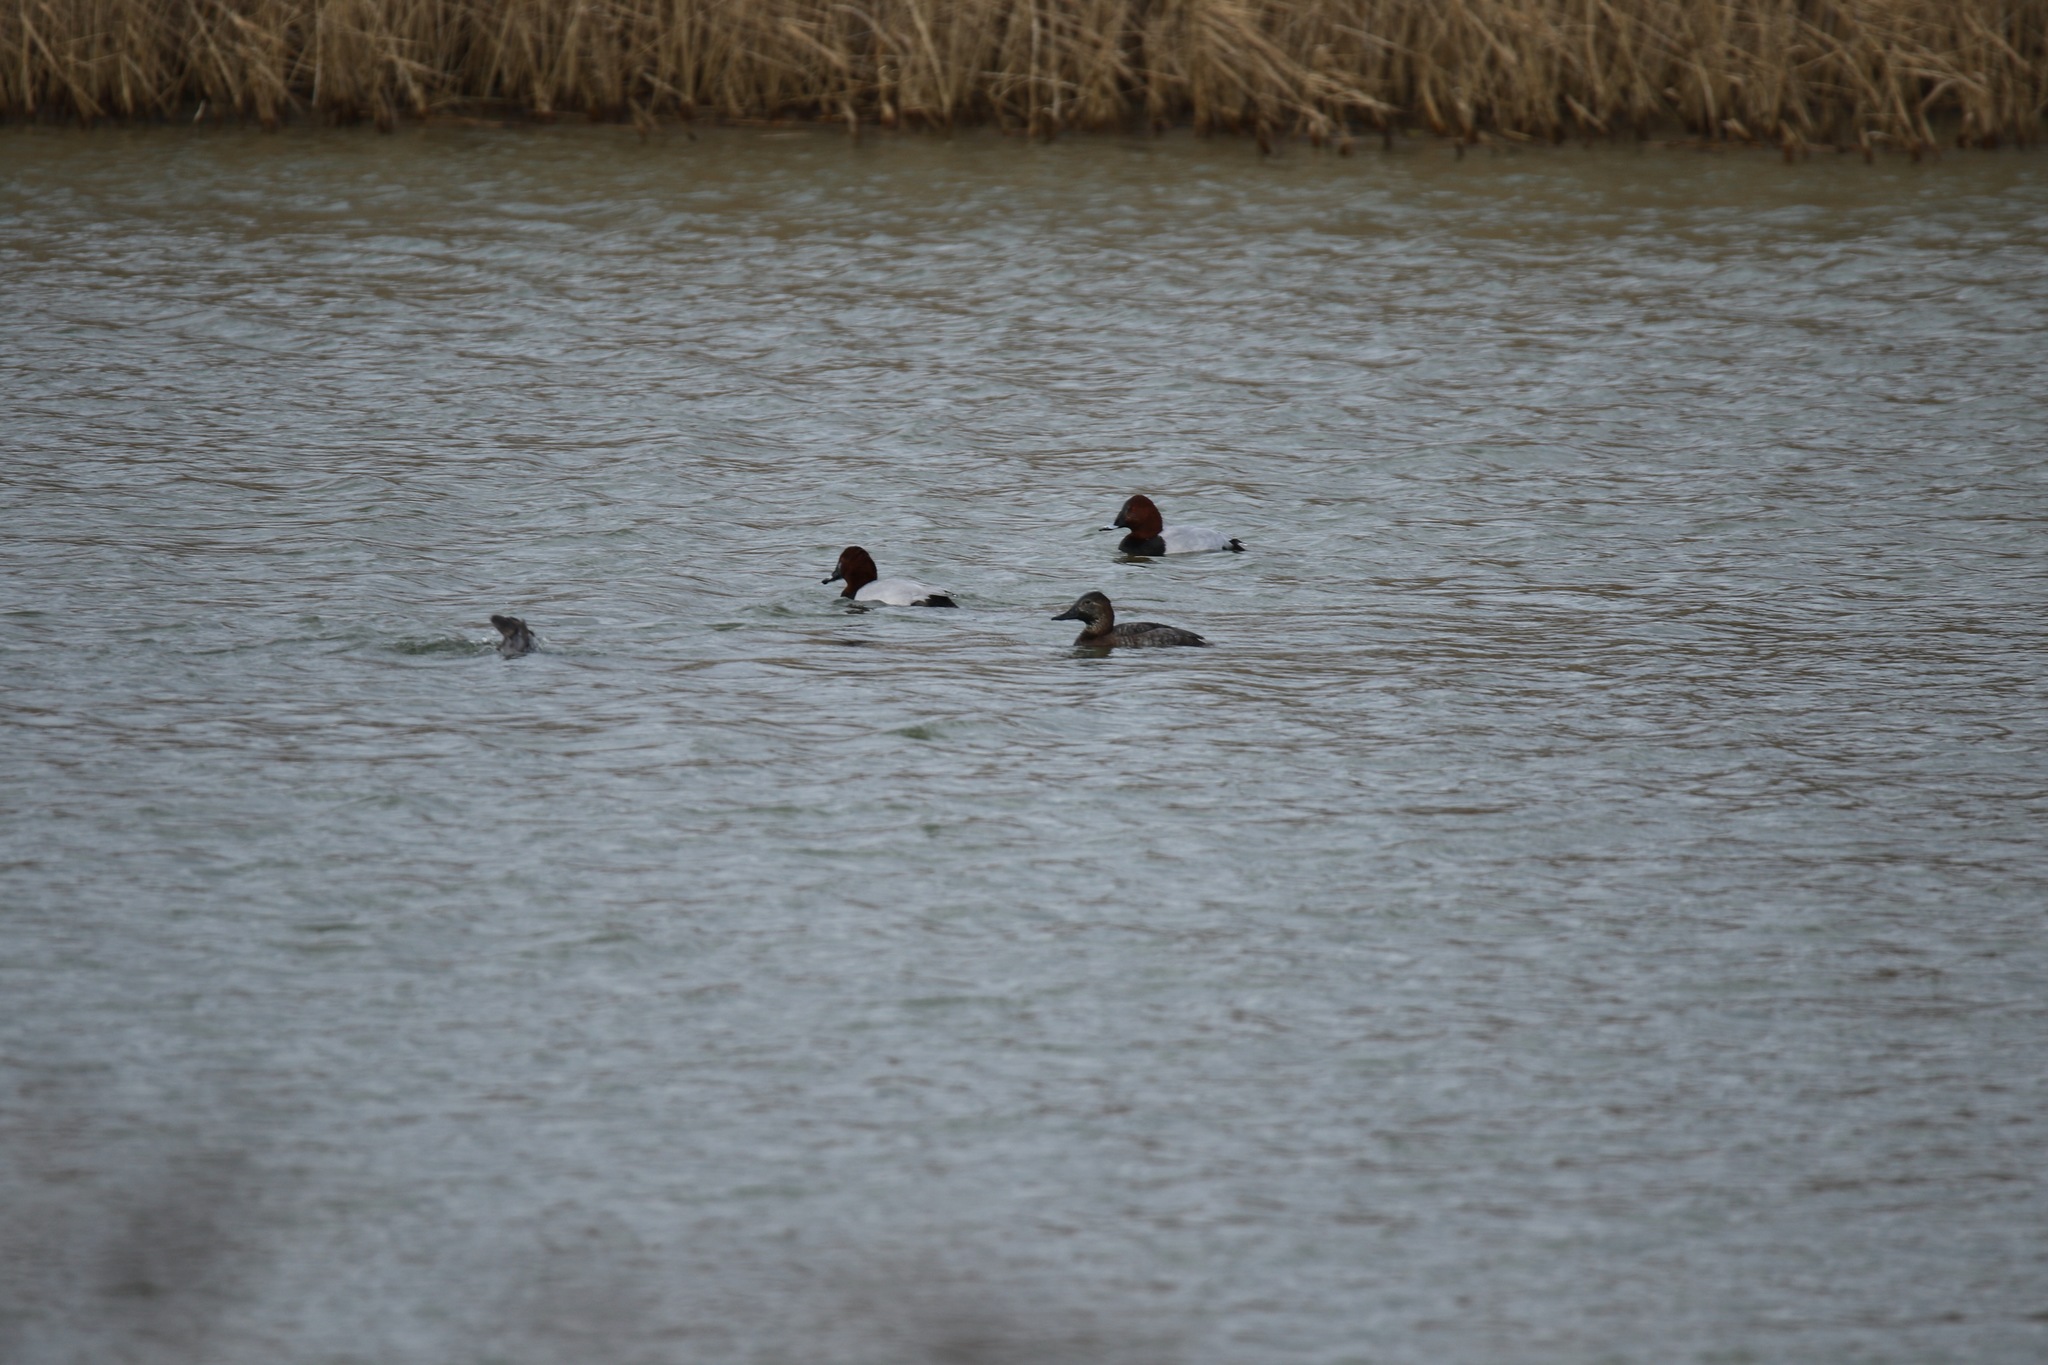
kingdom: Animalia
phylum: Chordata
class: Aves
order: Anseriformes
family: Anatidae
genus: Aythya
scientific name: Aythya ferina
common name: Common pochard
